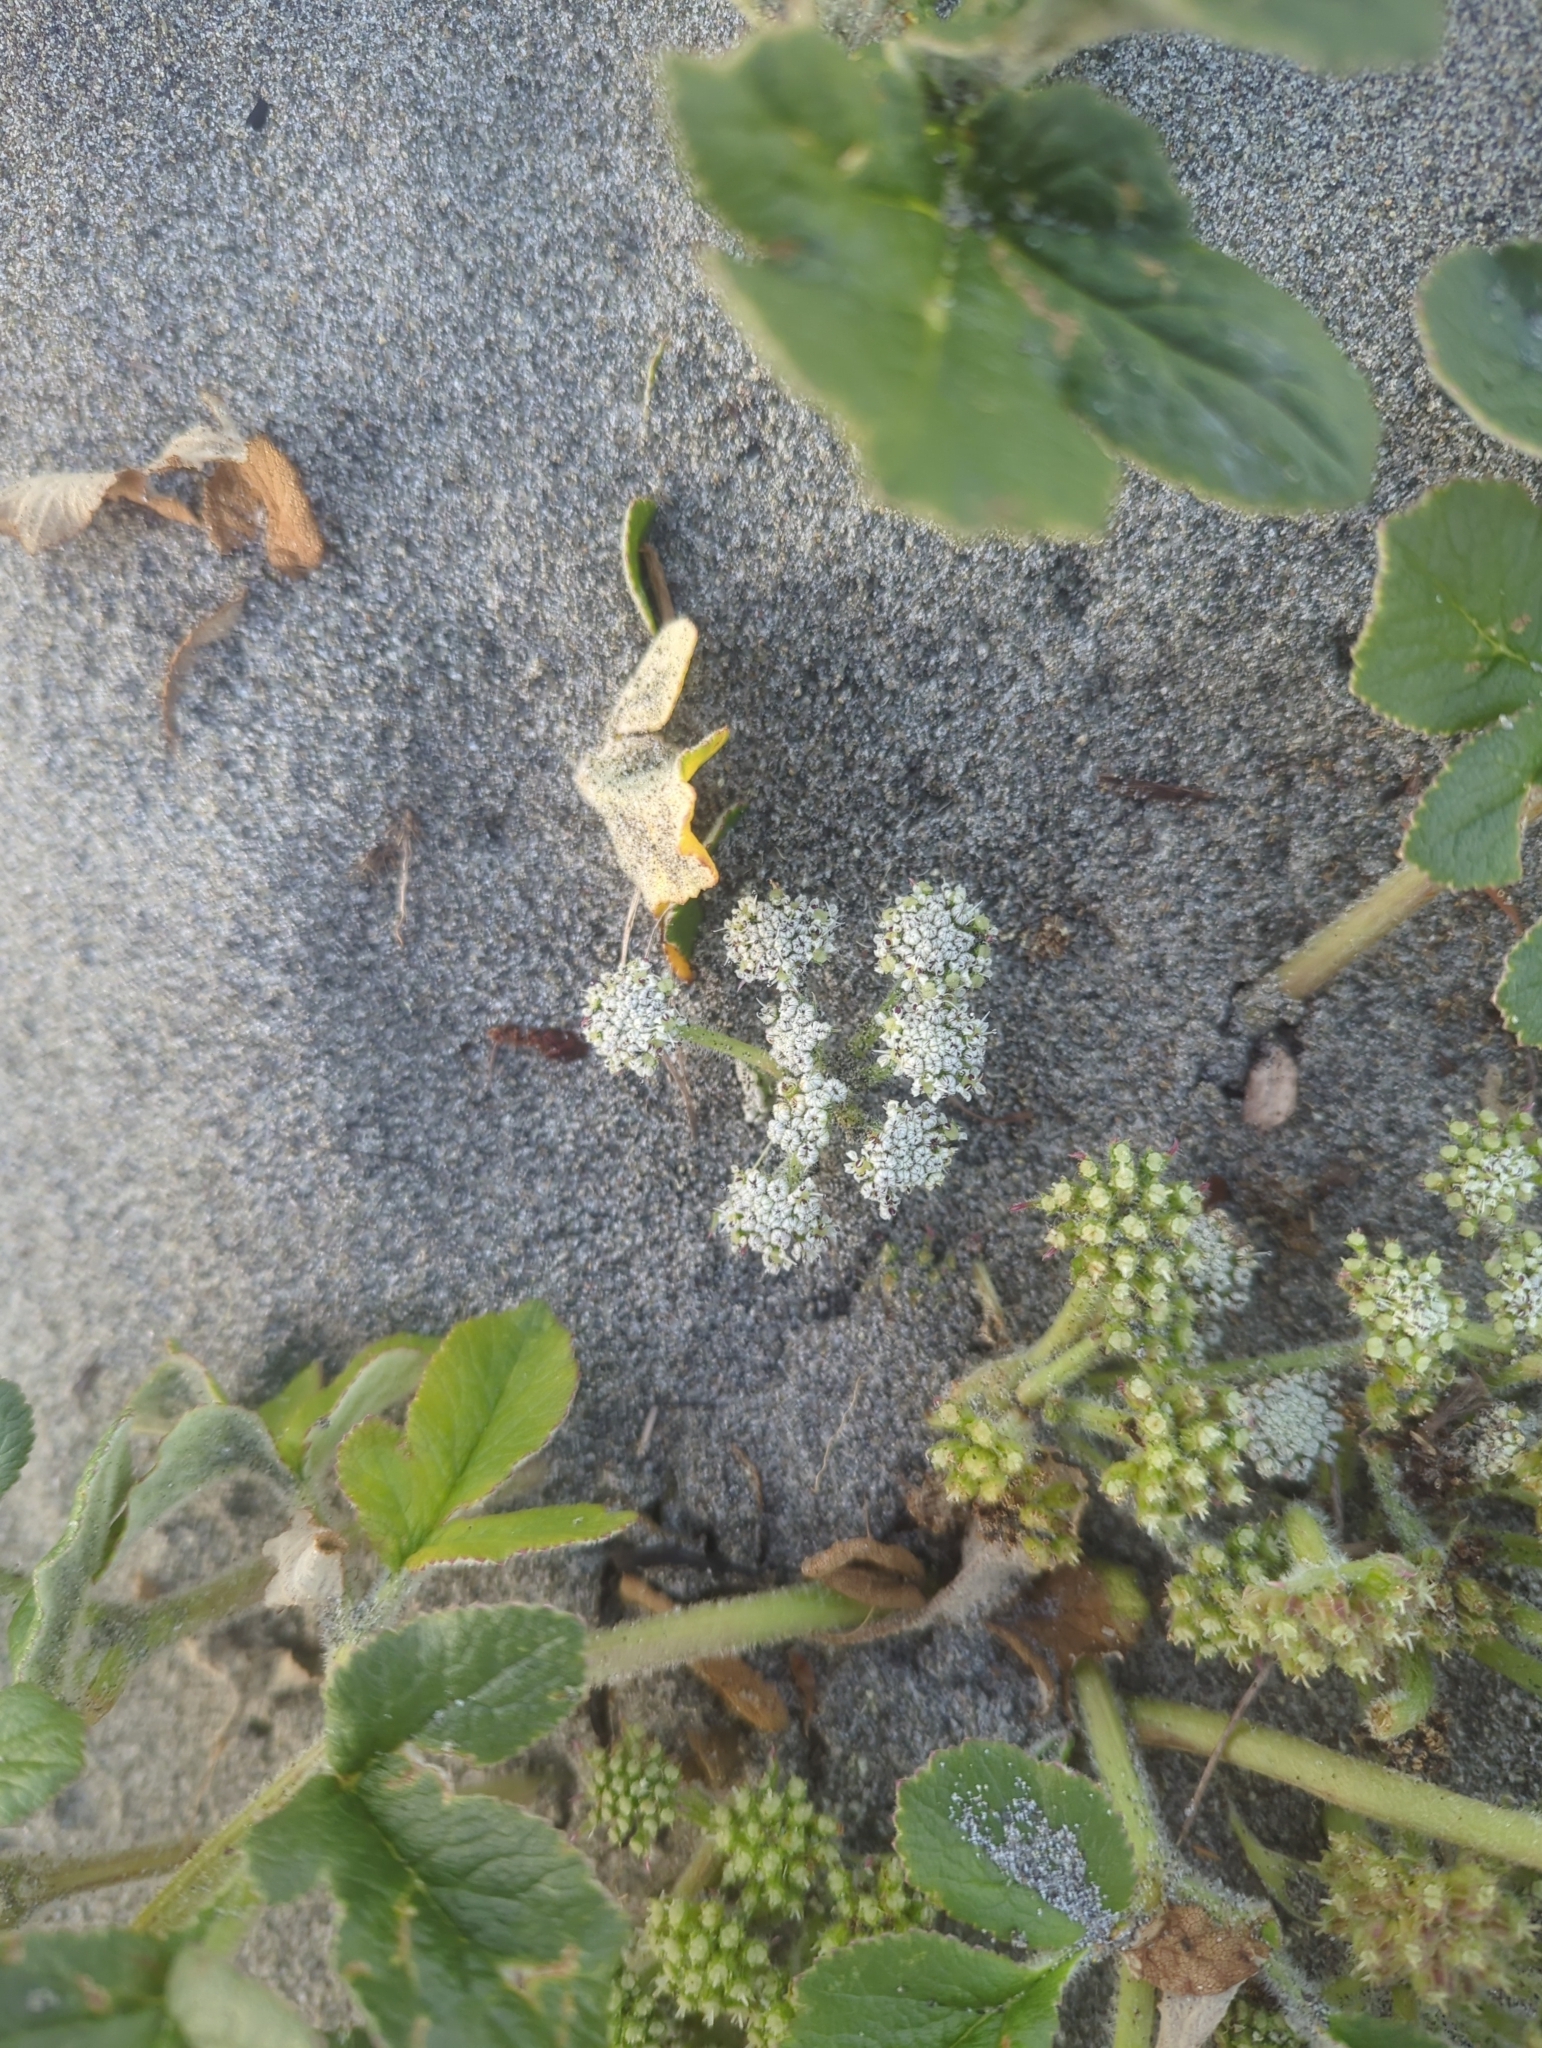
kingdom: Plantae
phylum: Tracheophyta
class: Magnoliopsida
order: Apiales
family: Apiaceae
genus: Glehnia
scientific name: Glehnia littoralis
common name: Beach silvertop
